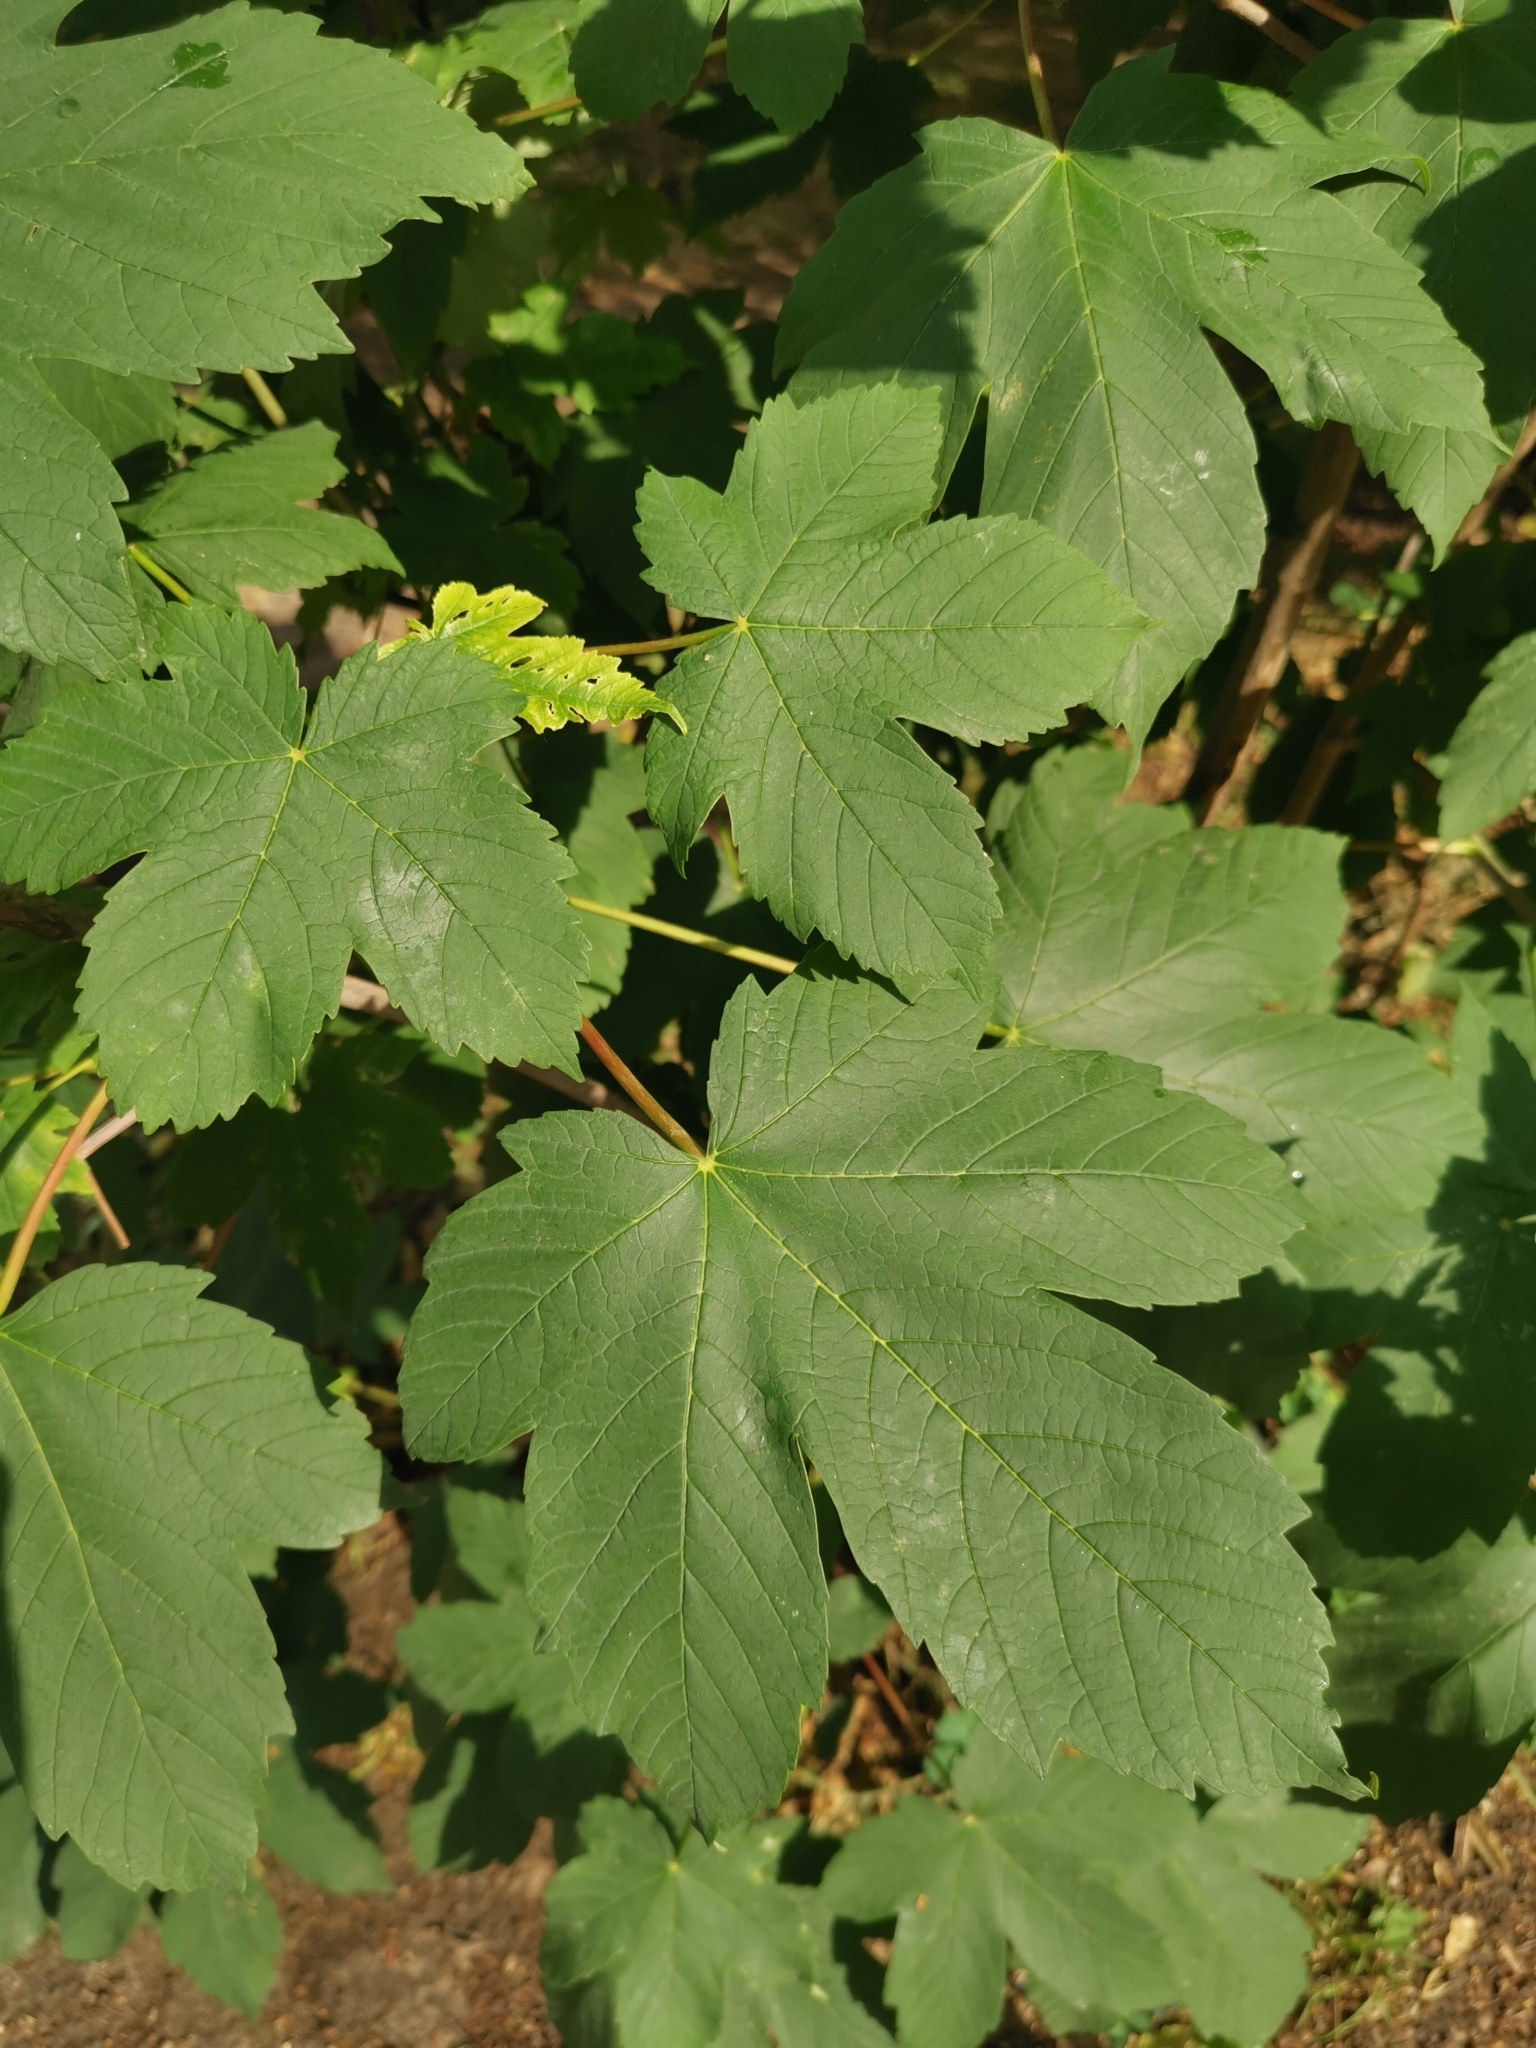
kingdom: Plantae
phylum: Tracheophyta
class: Magnoliopsida
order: Sapindales
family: Sapindaceae
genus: Acer
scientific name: Acer pseudoplatanus
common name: Sycamore
